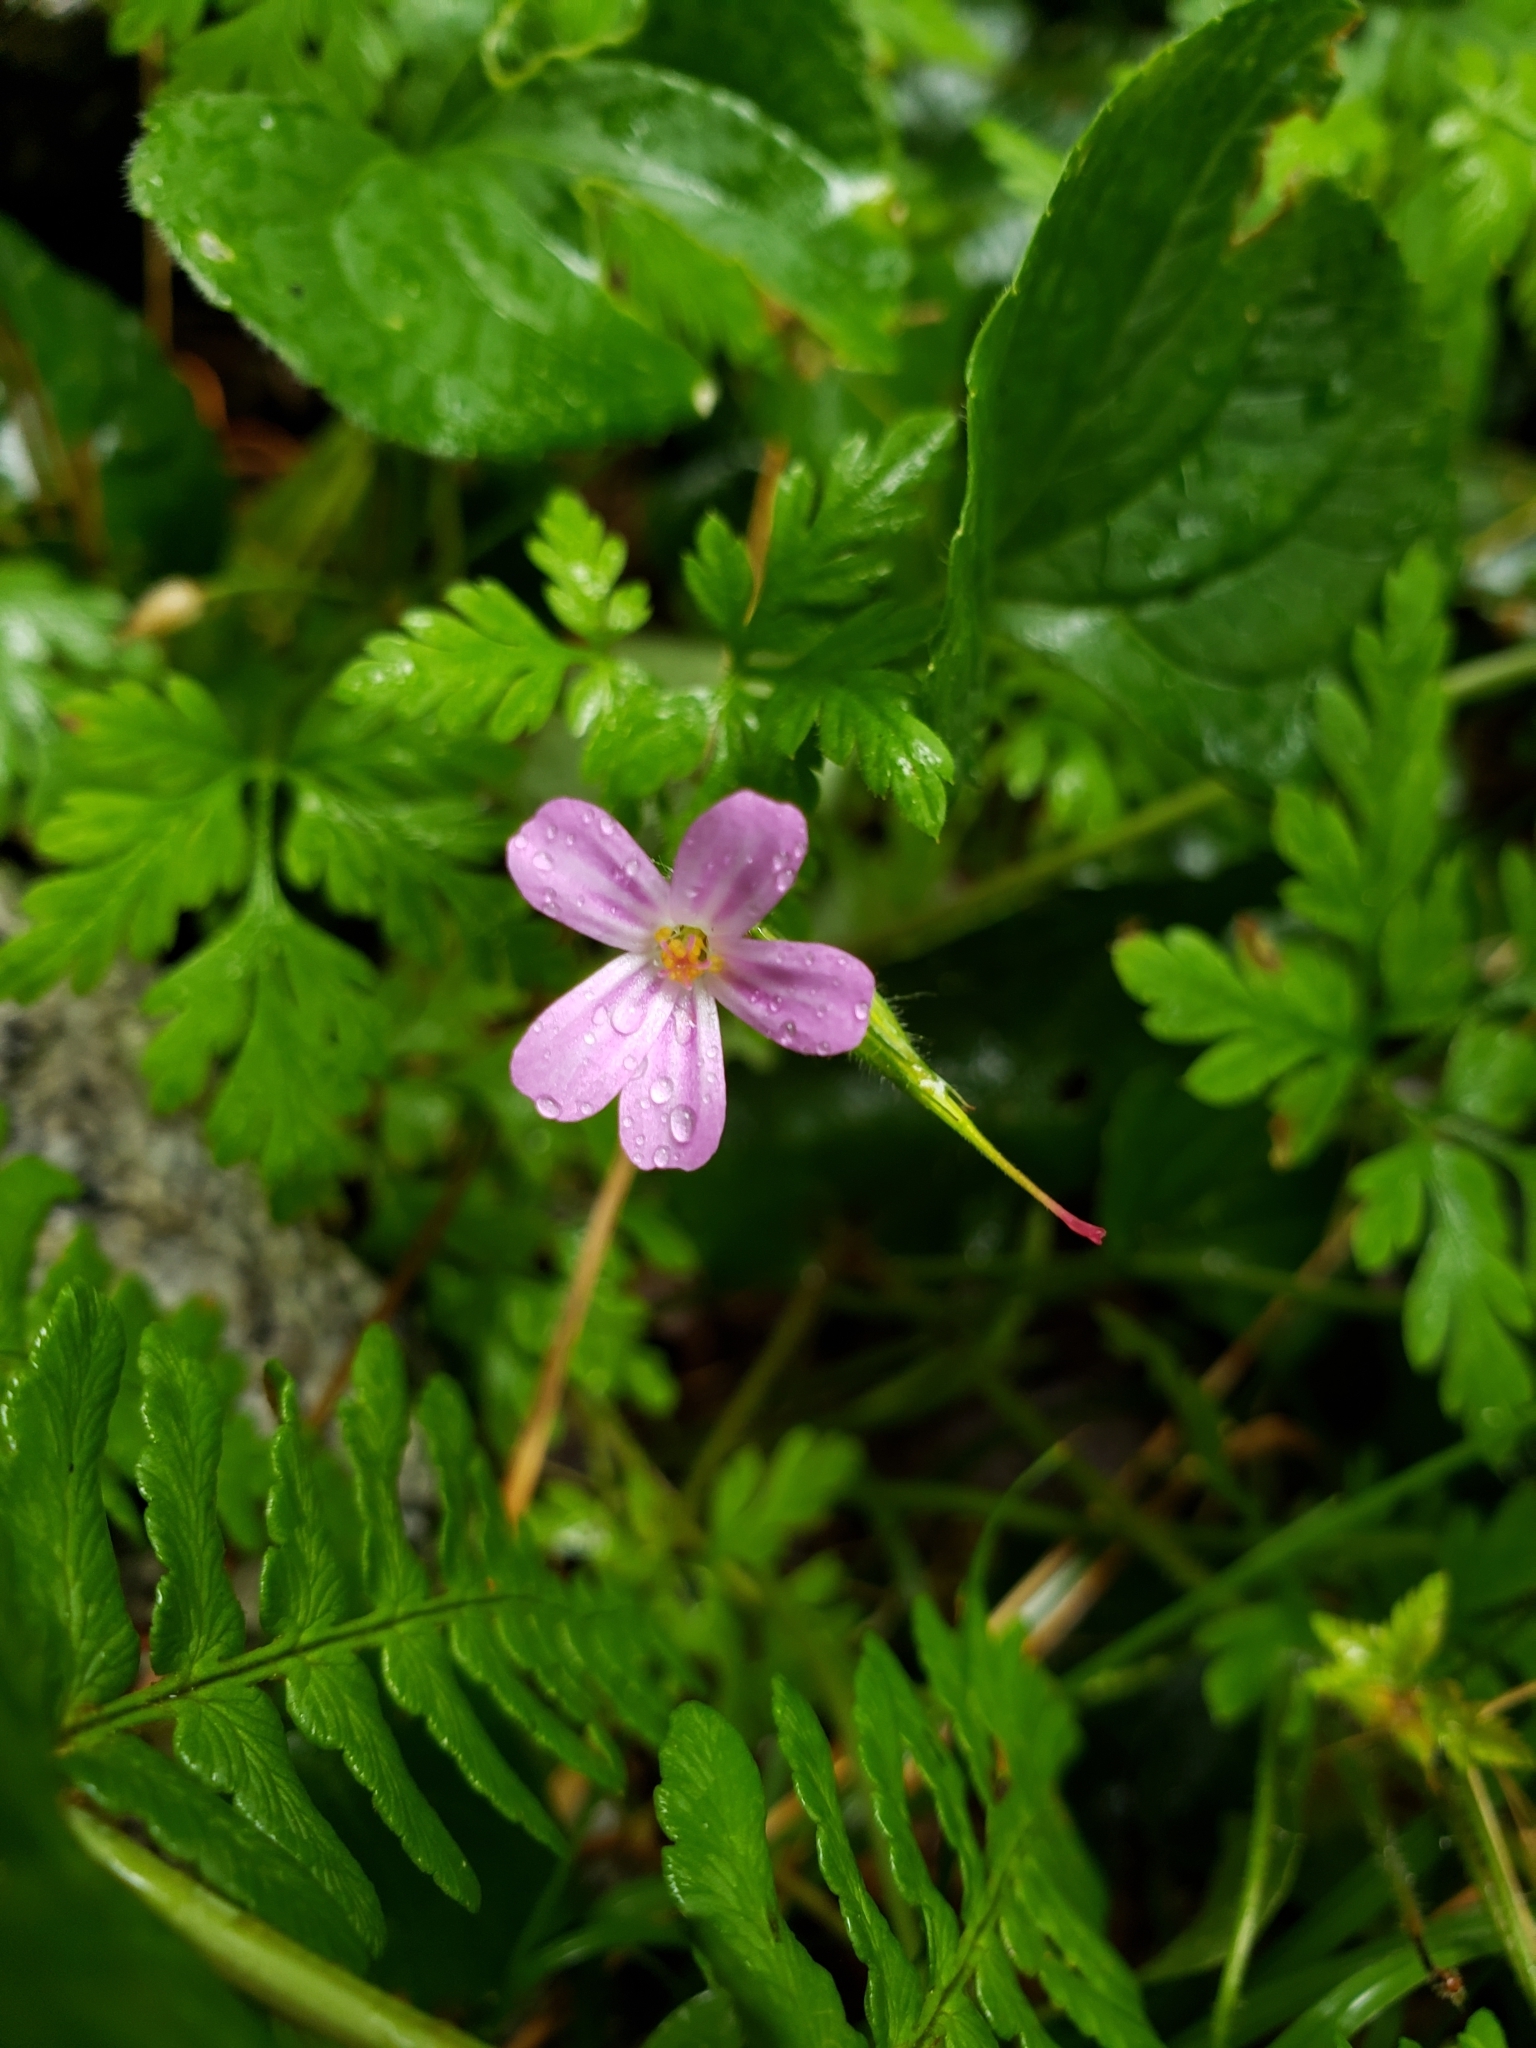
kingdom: Plantae
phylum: Tracheophyta
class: Magnoliopsida
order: Geraniales
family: Geraniaceae
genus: Geranium
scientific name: Geranium robertianum
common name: Herb-robert
